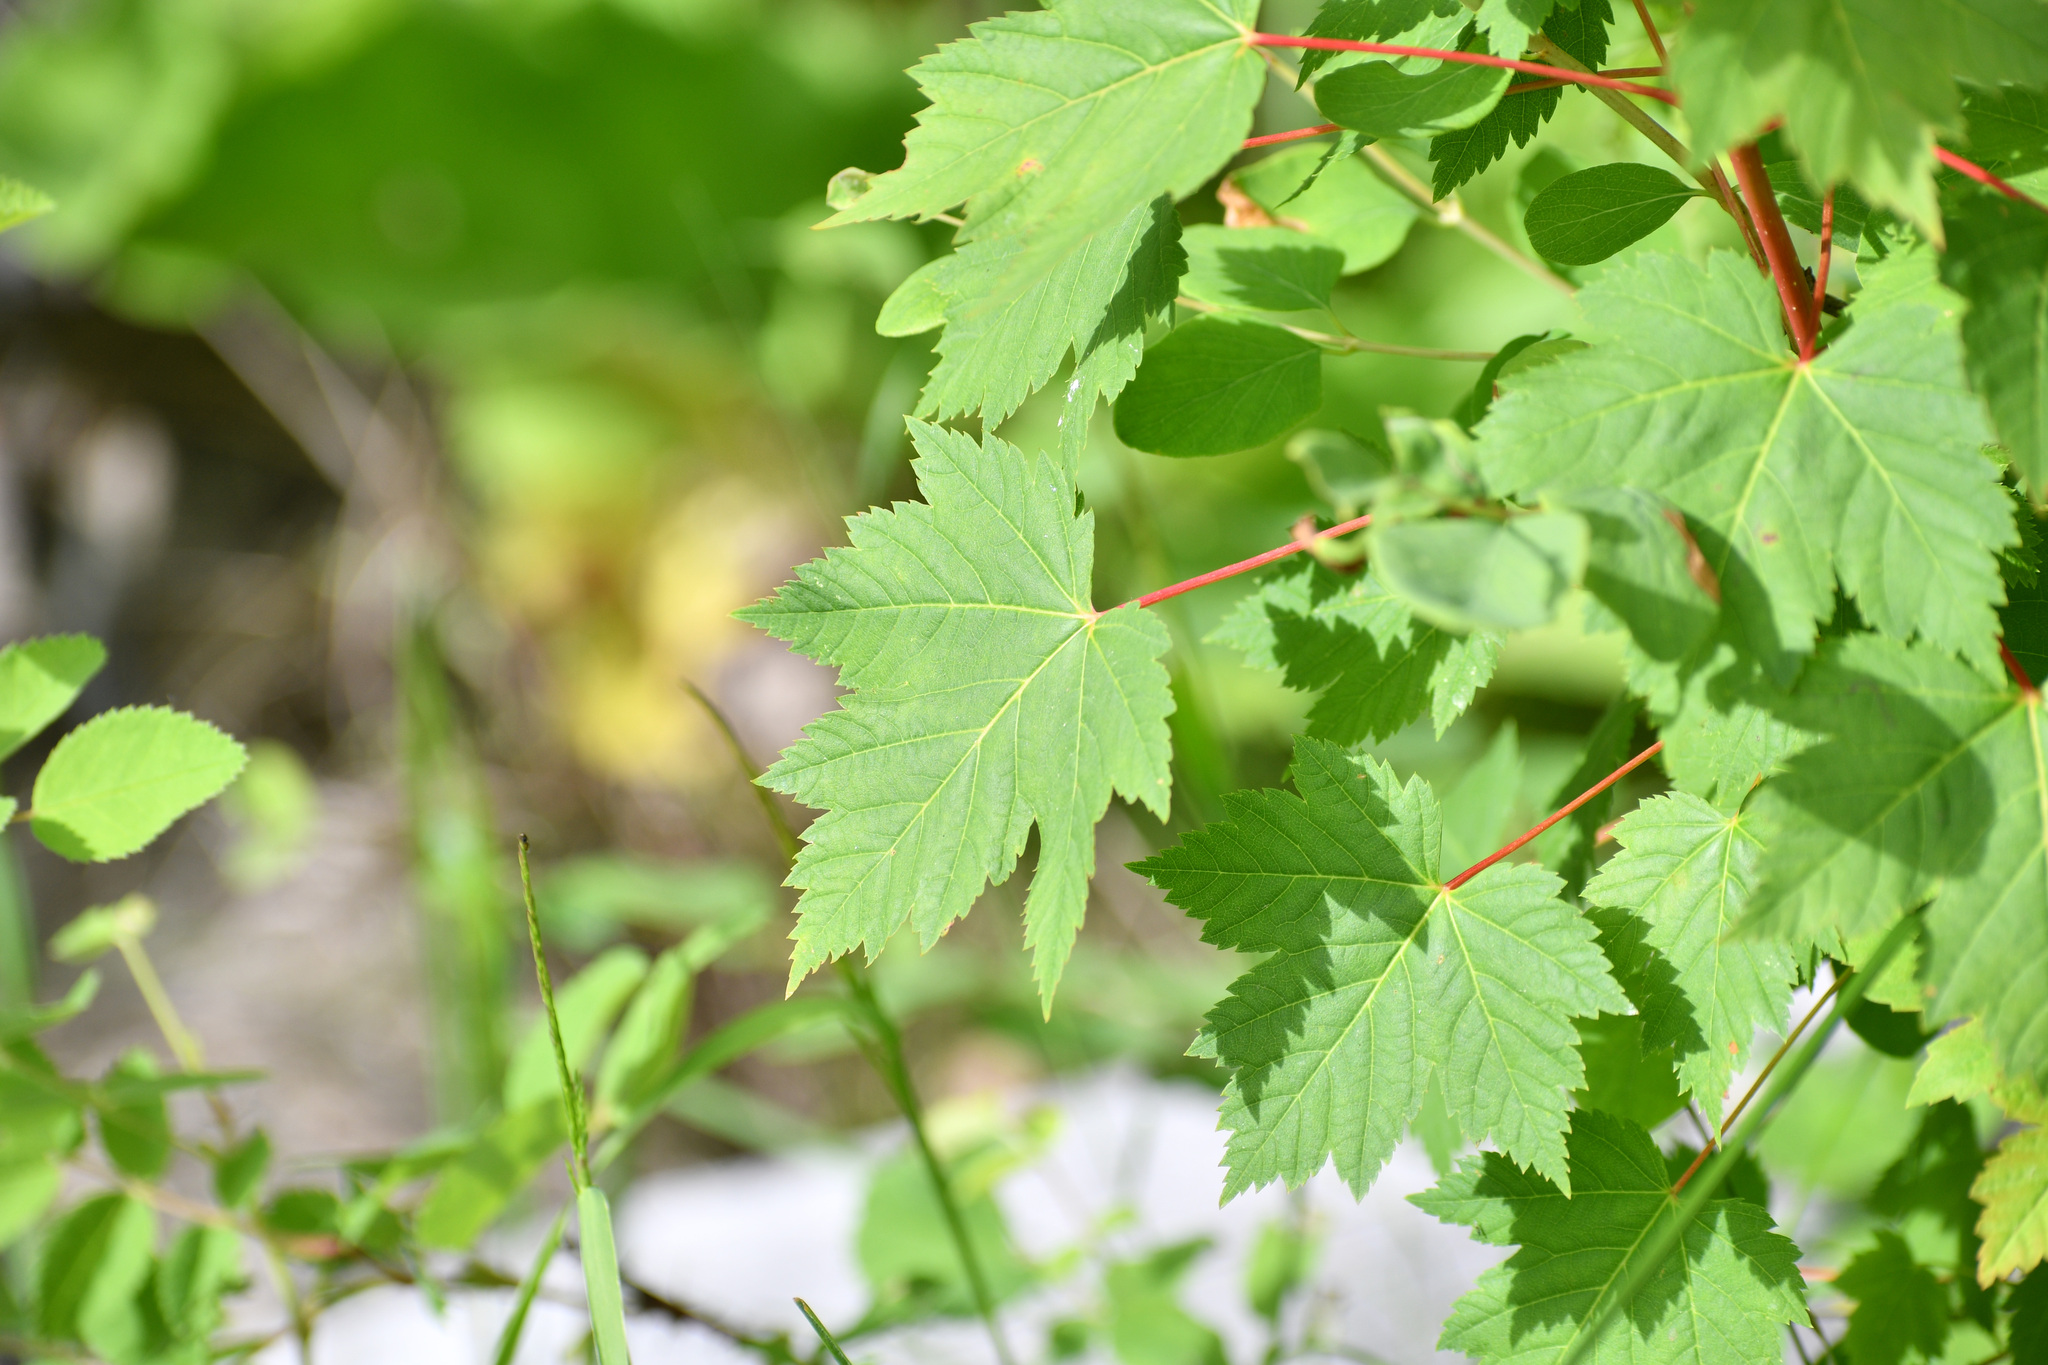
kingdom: Plantae
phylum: Tracheophyta
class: Magnoliopsida
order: Sapindales
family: Sapindaceae
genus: Acer
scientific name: Acer glabrum
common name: Rocky mountain maple
